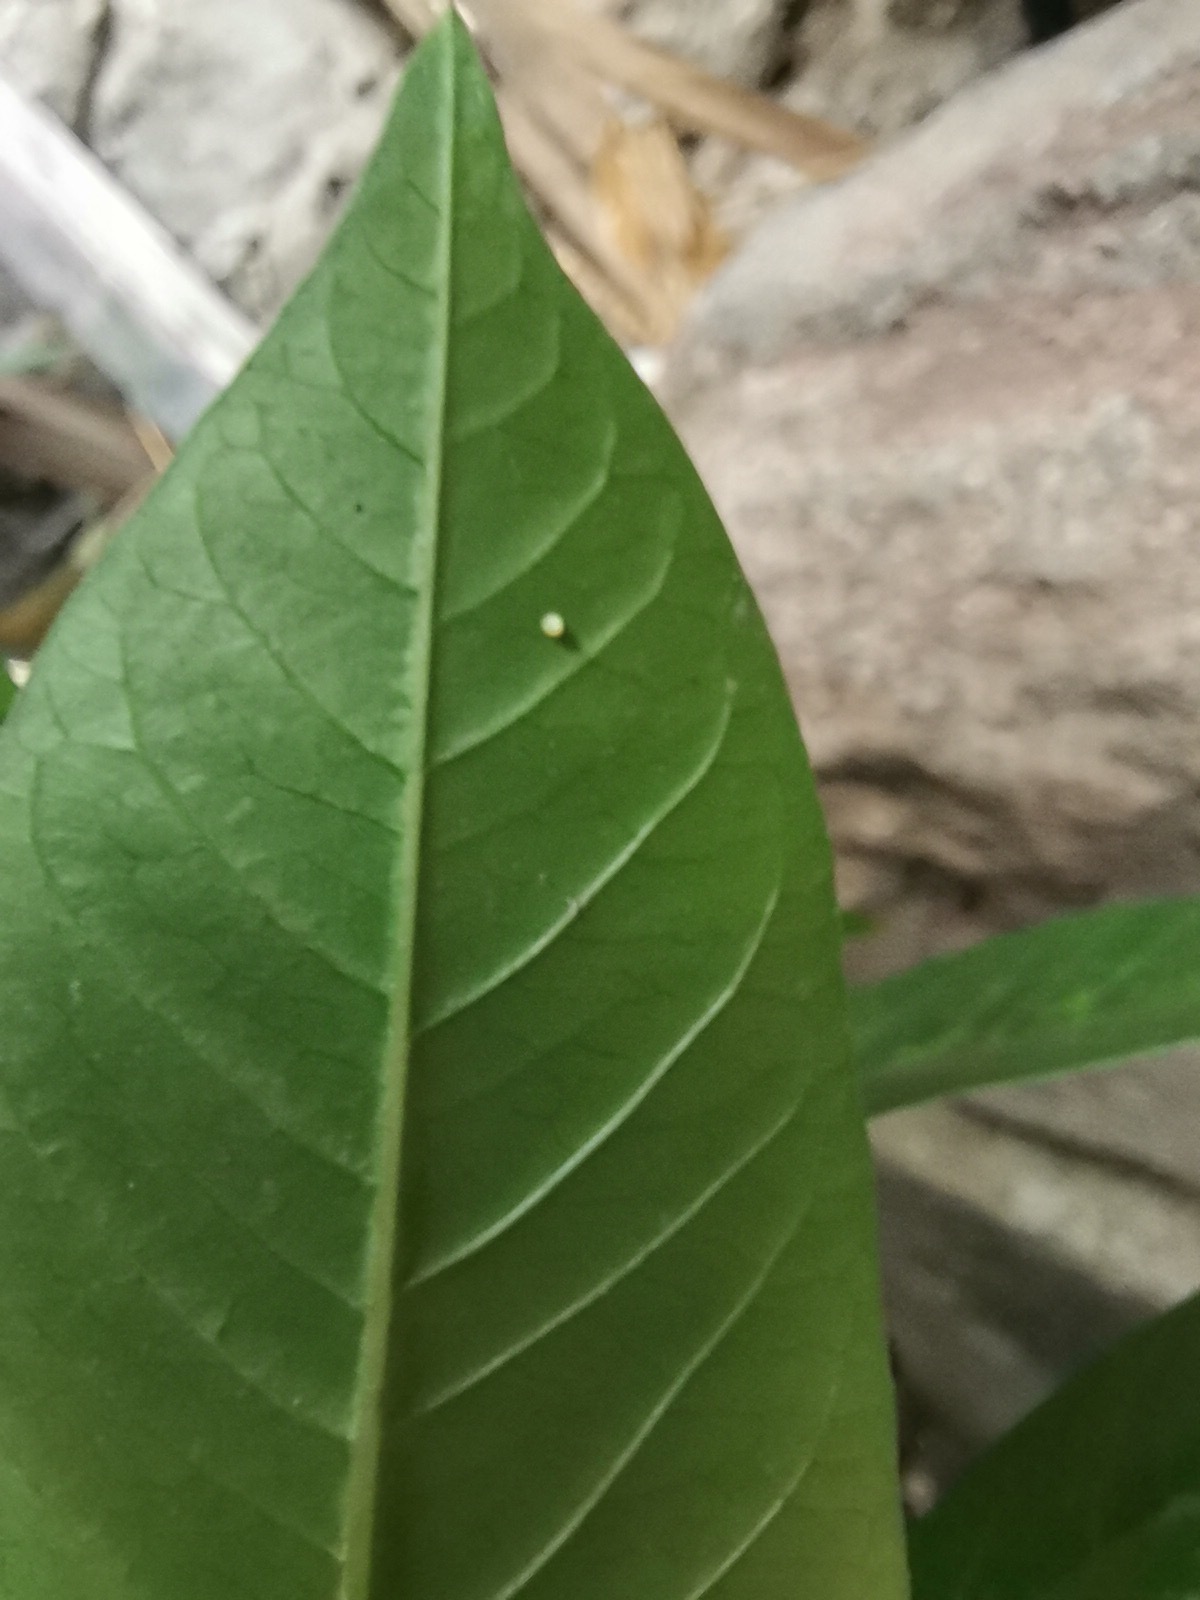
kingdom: Animalia
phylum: Arthropoda
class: Insecta
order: Lepidoptera
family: Nymphalidae
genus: Danaus
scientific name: Danaus plexippus
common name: Monarch
